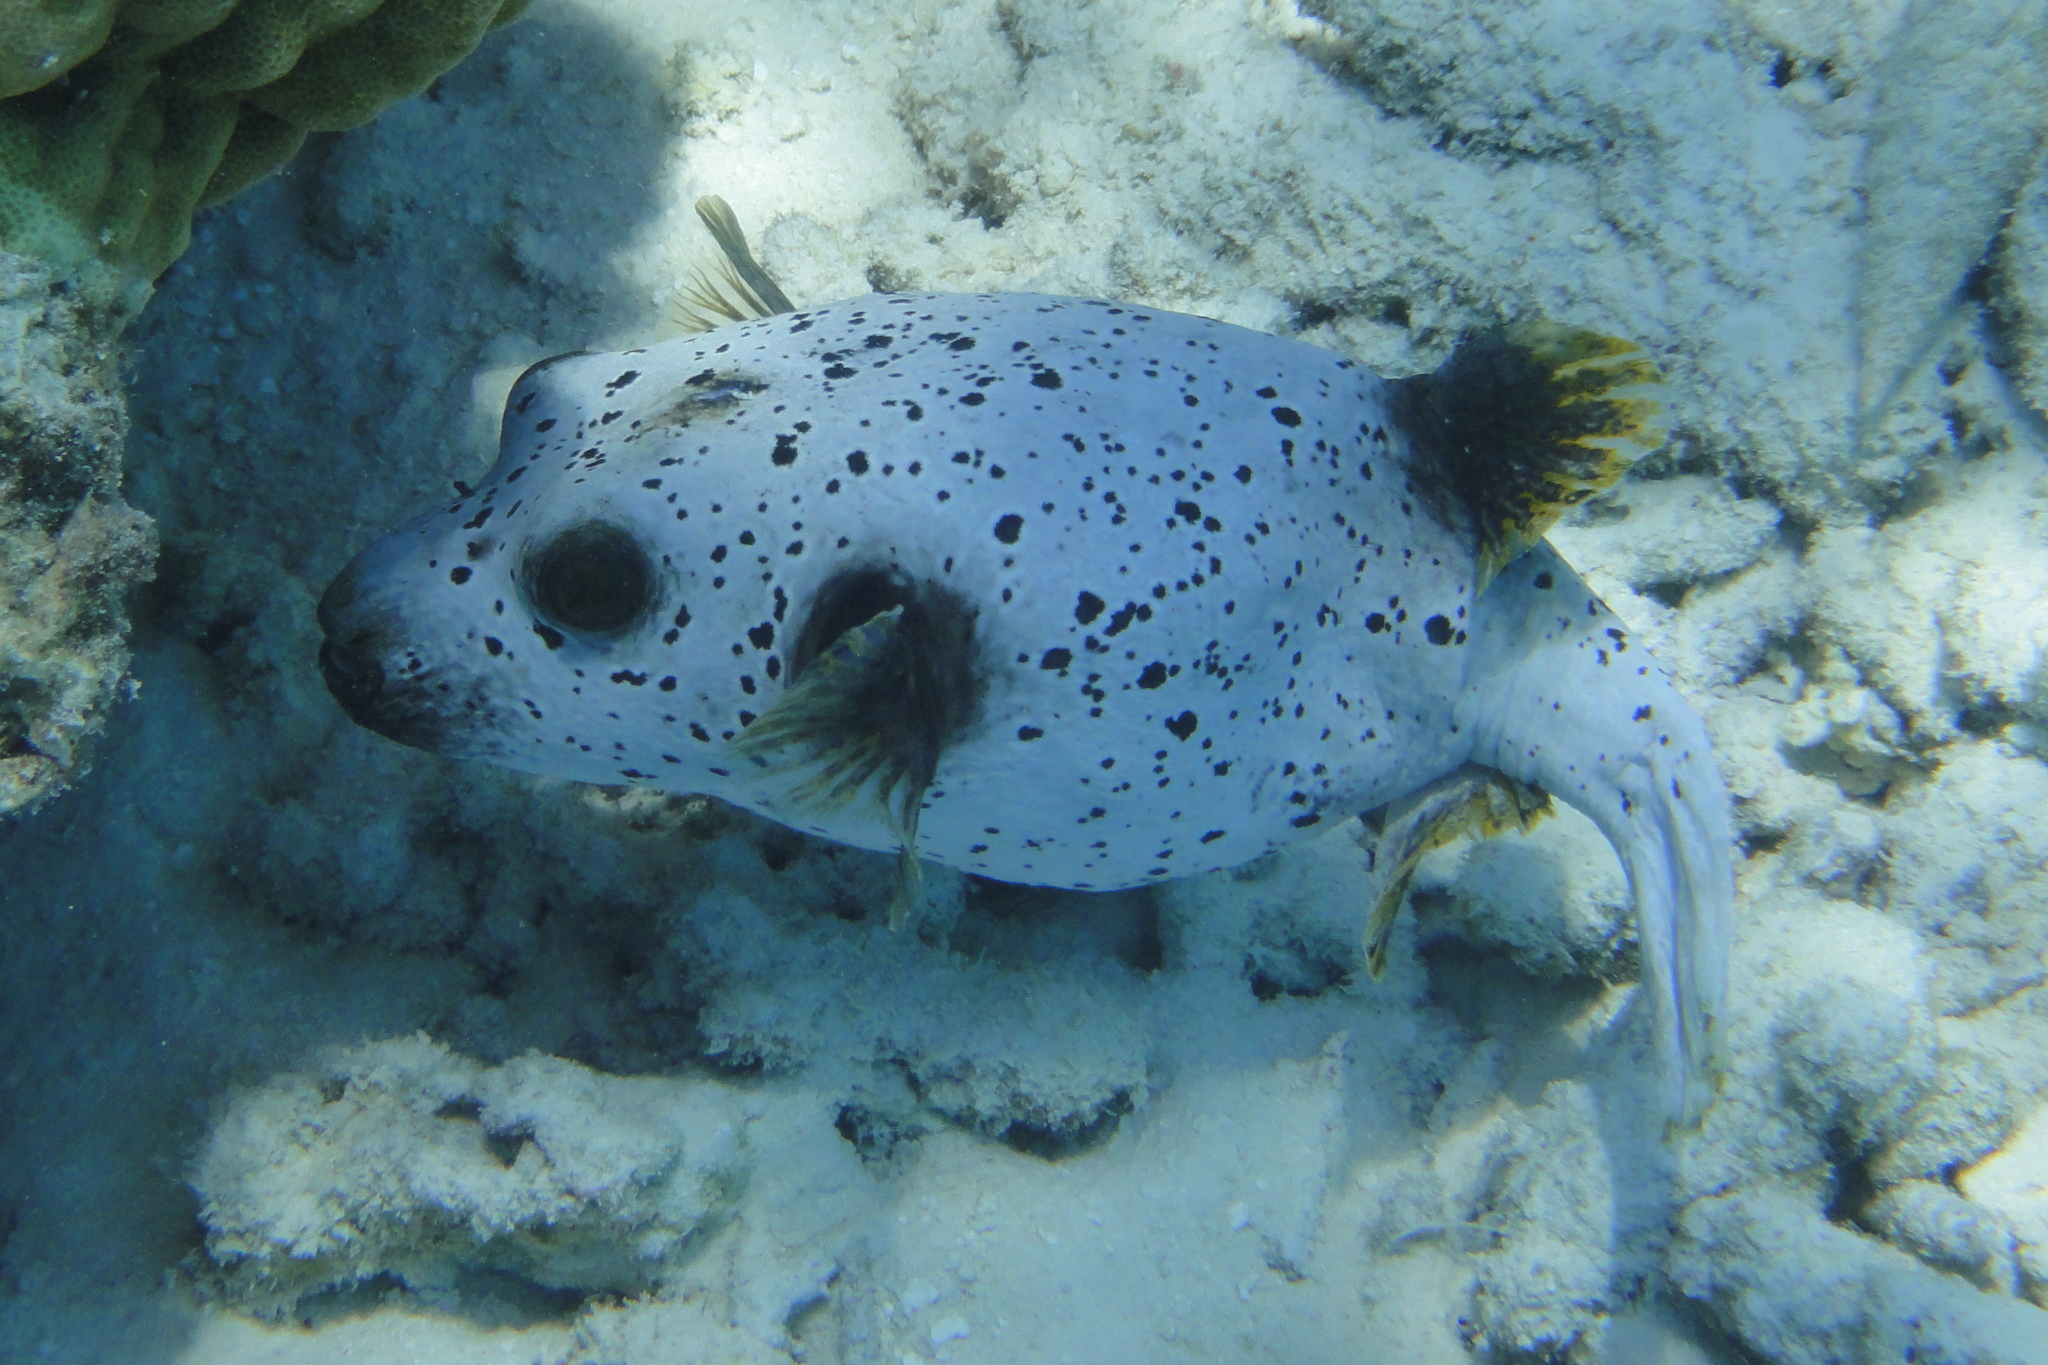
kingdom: Animalia
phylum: Chordata
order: Tetraodontiformes
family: Tetraodontidae
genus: Arothron
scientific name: Arothron nigropunctatus
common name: Black spotted blow fish
